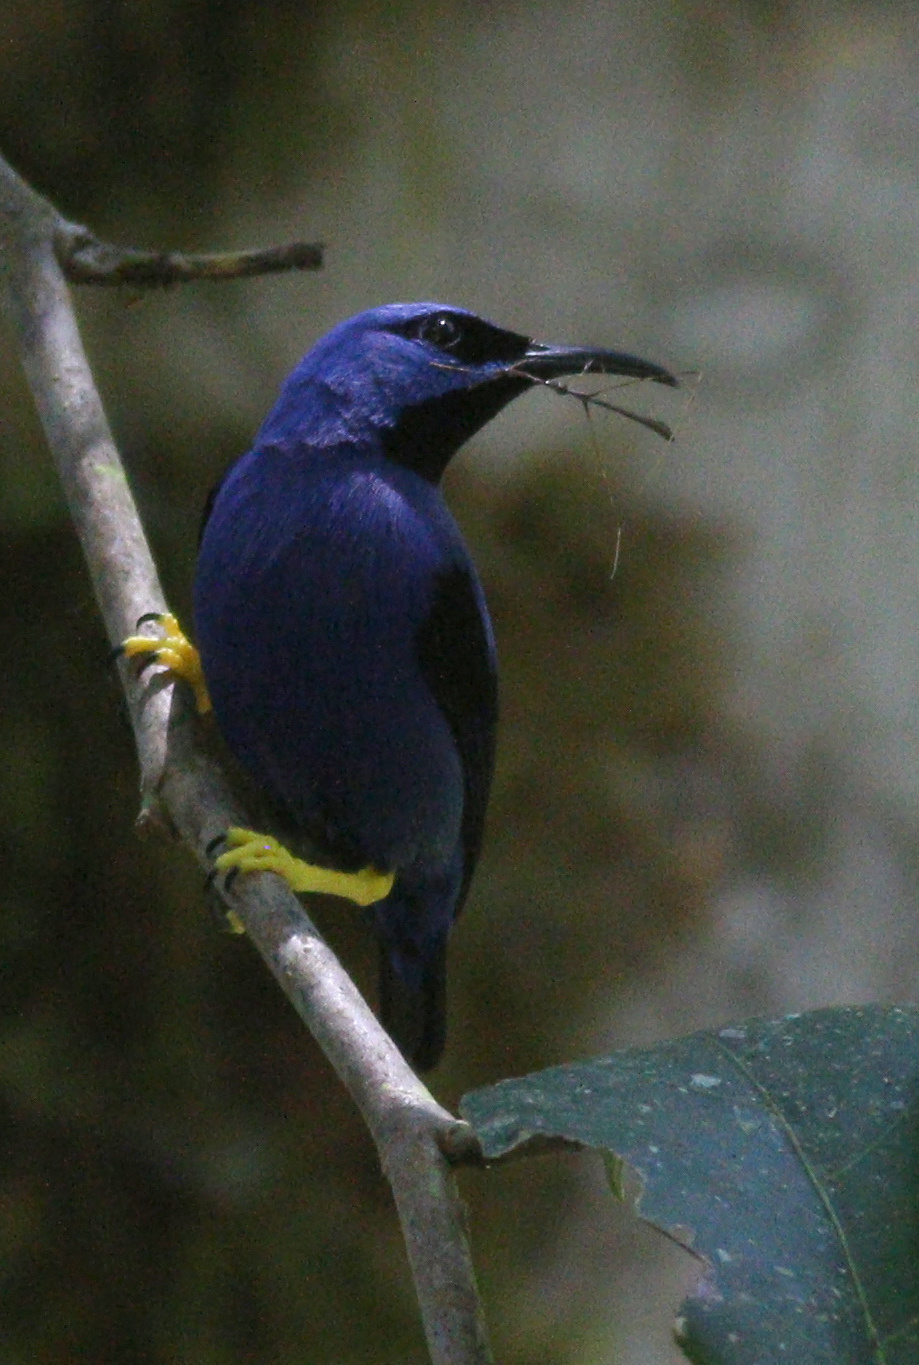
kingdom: Animalia
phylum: Chordata
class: Aves
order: Passeriformes
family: Thraupidae
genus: Cyanerpes
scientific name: Cyanerpes caeruleus
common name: Purple honeycreeper
